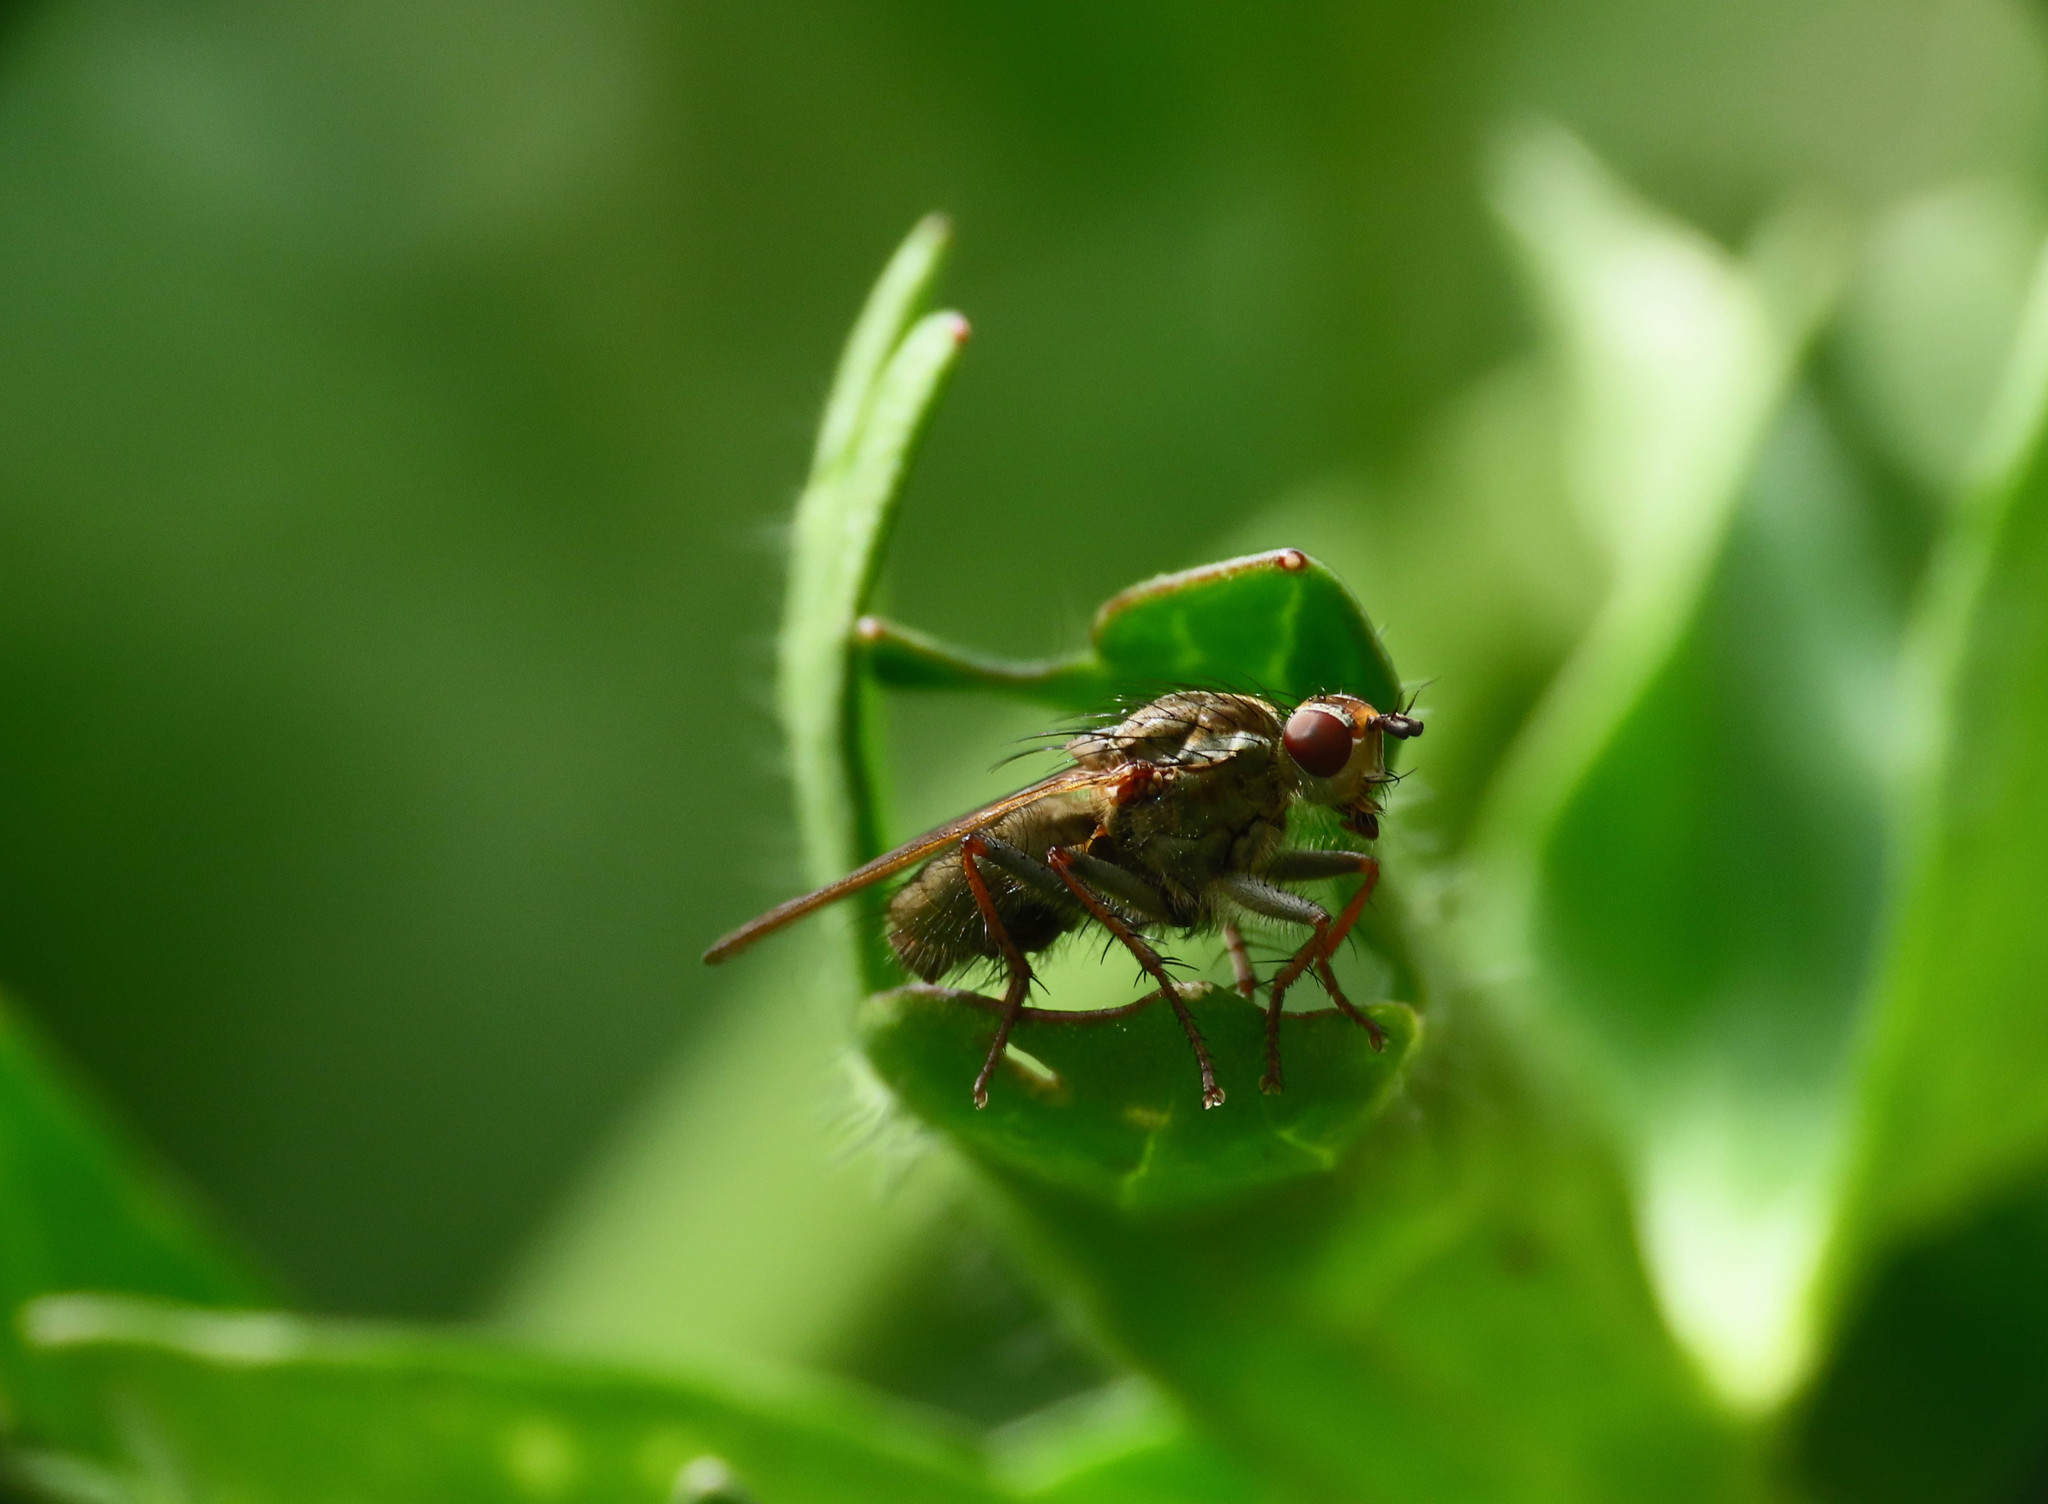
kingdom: Animalia
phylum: Arthropoda
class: Insecta
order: Diptera
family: Scathophagidae
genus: Scathophaga
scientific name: Scathophaga stercoraria
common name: Yellow dung fly
